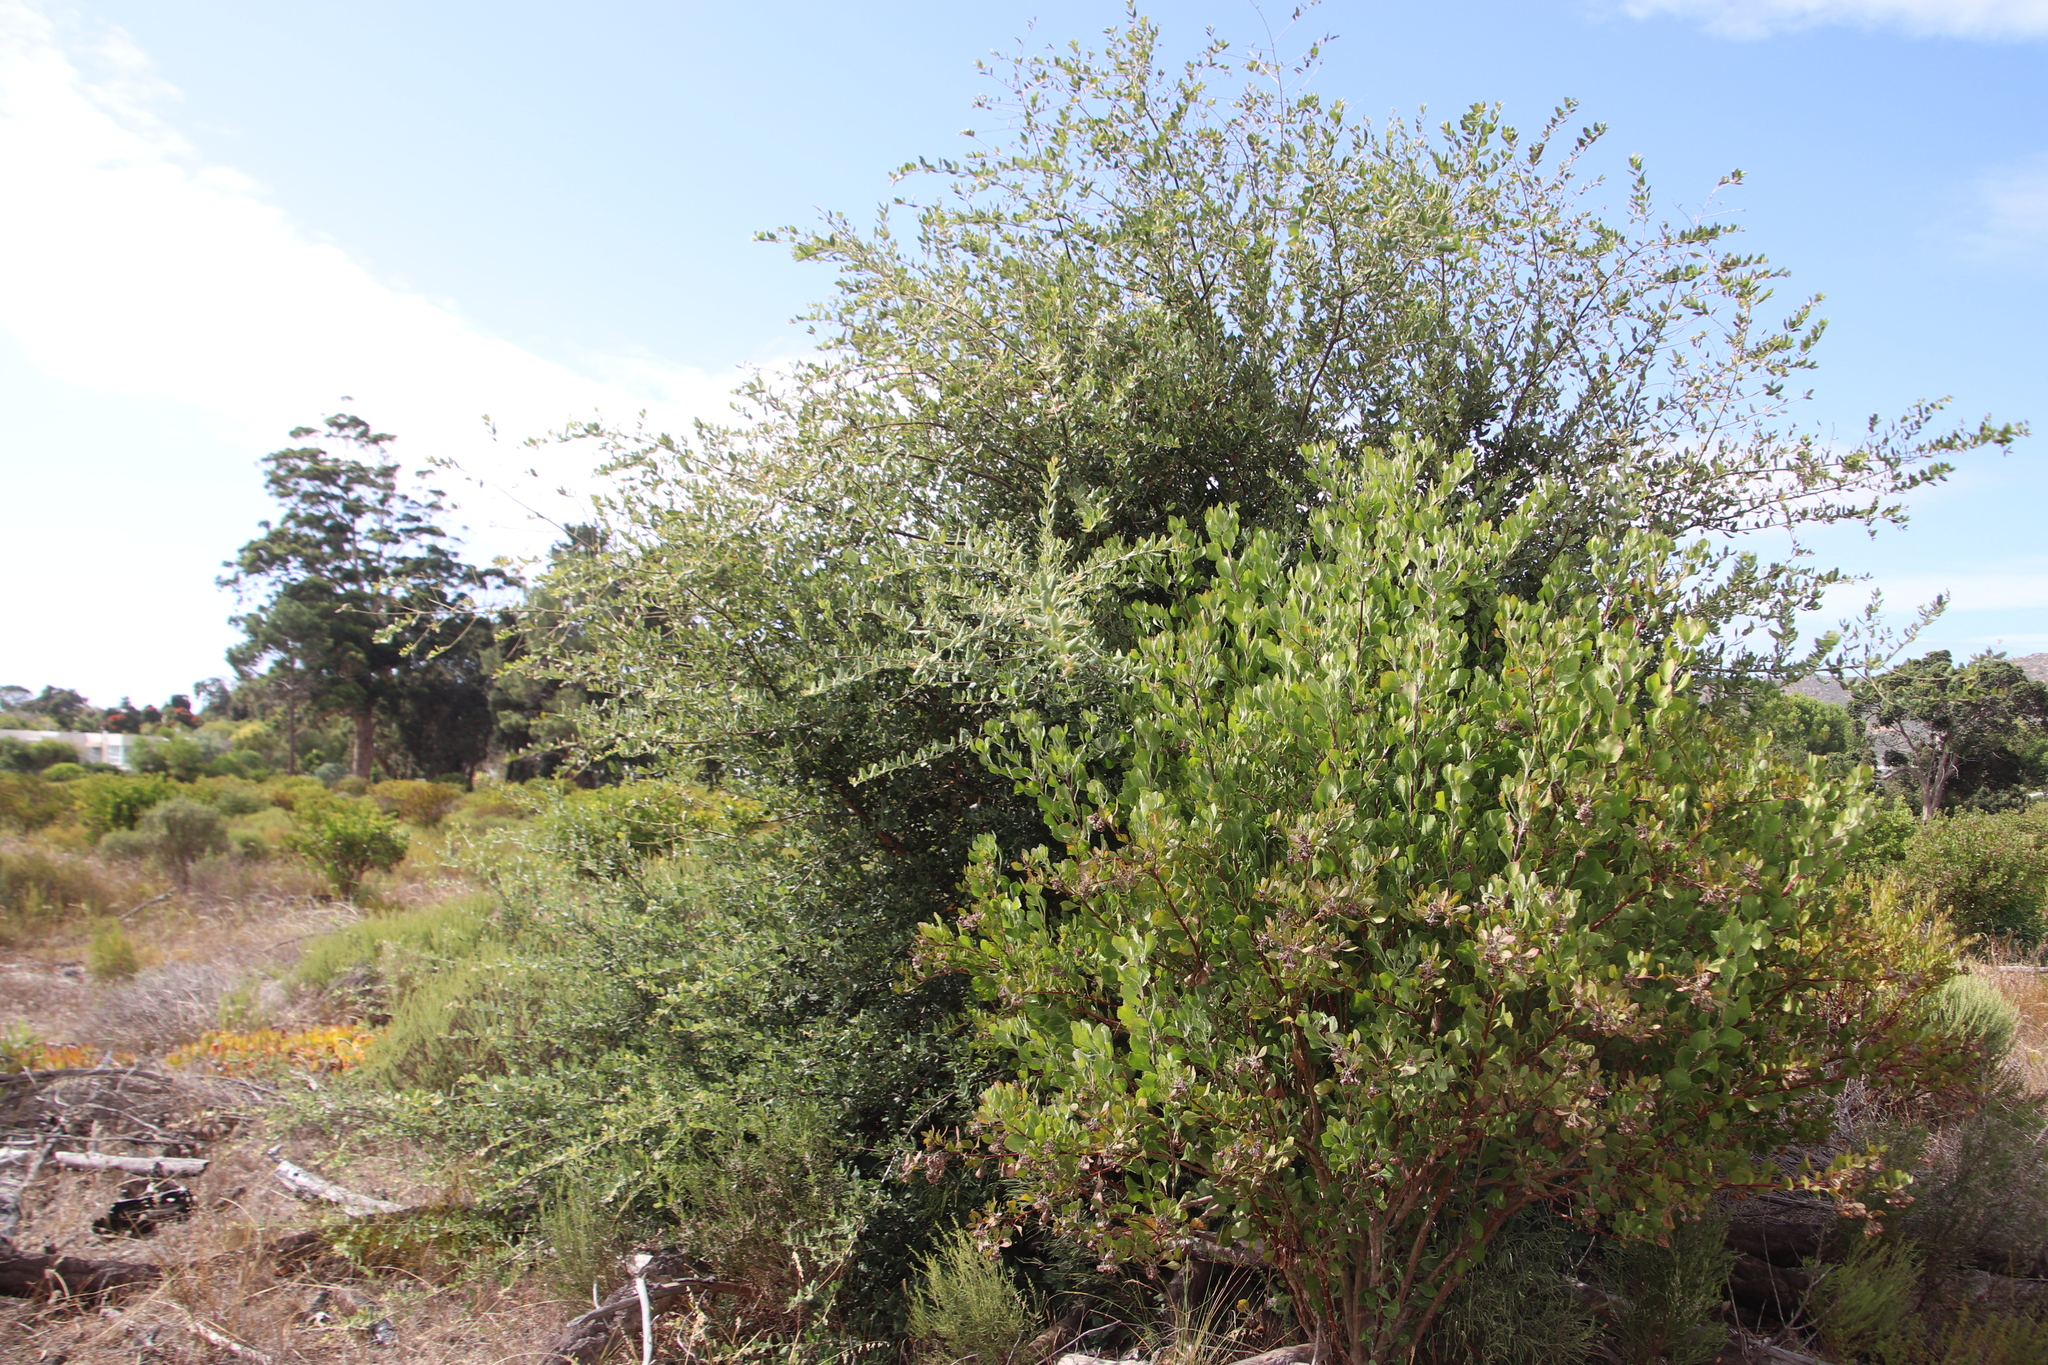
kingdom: Plantae
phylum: Tracheophyta
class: Magnoliopsida
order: Fagales
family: Fagaceae
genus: Quercus
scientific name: Quercus suber
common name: Cork oak
